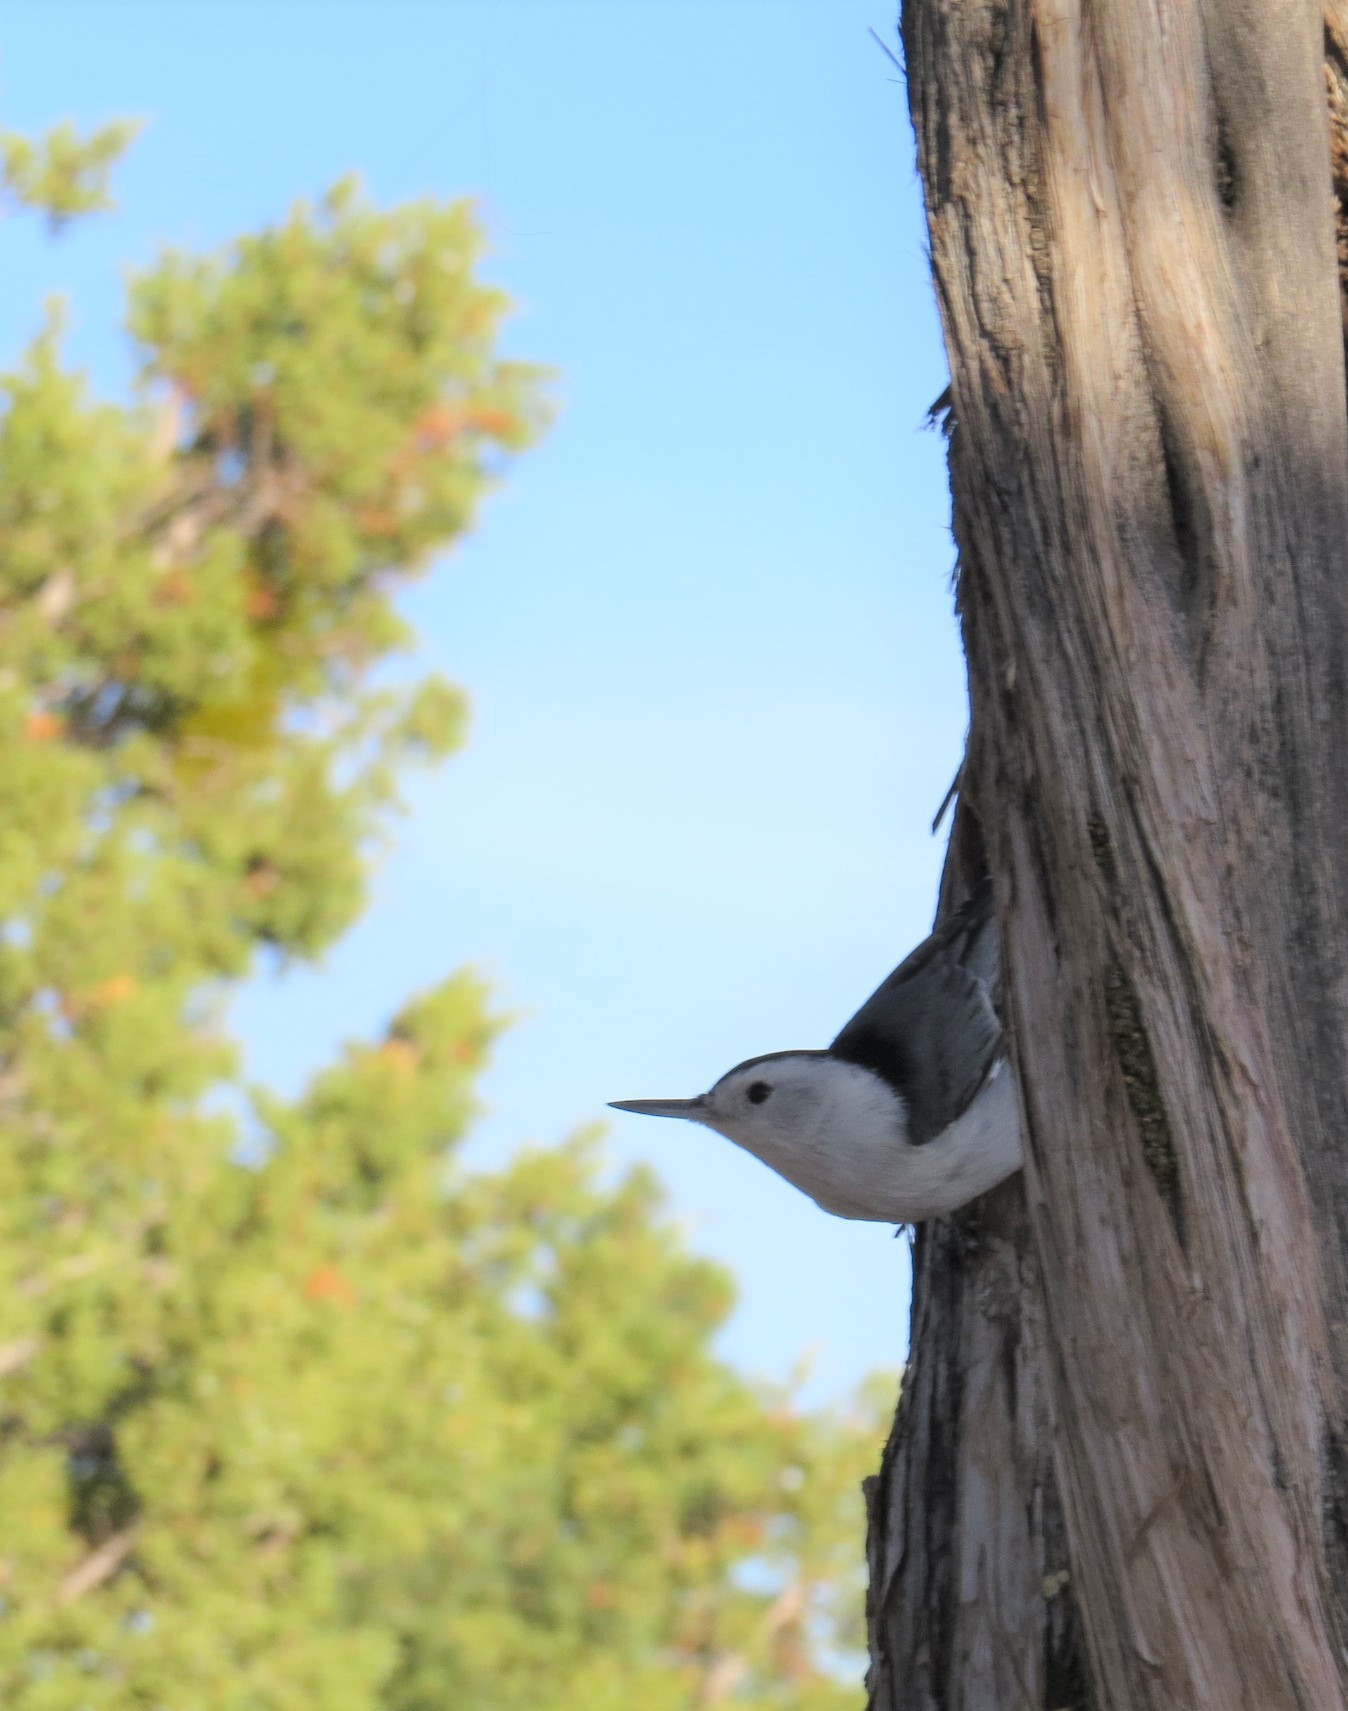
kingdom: Animalia
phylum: Chordata
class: Aves
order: Passeriformes
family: Sittidae
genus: Sitta
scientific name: Sitta carolinensis
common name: White-breasted nuthatch
